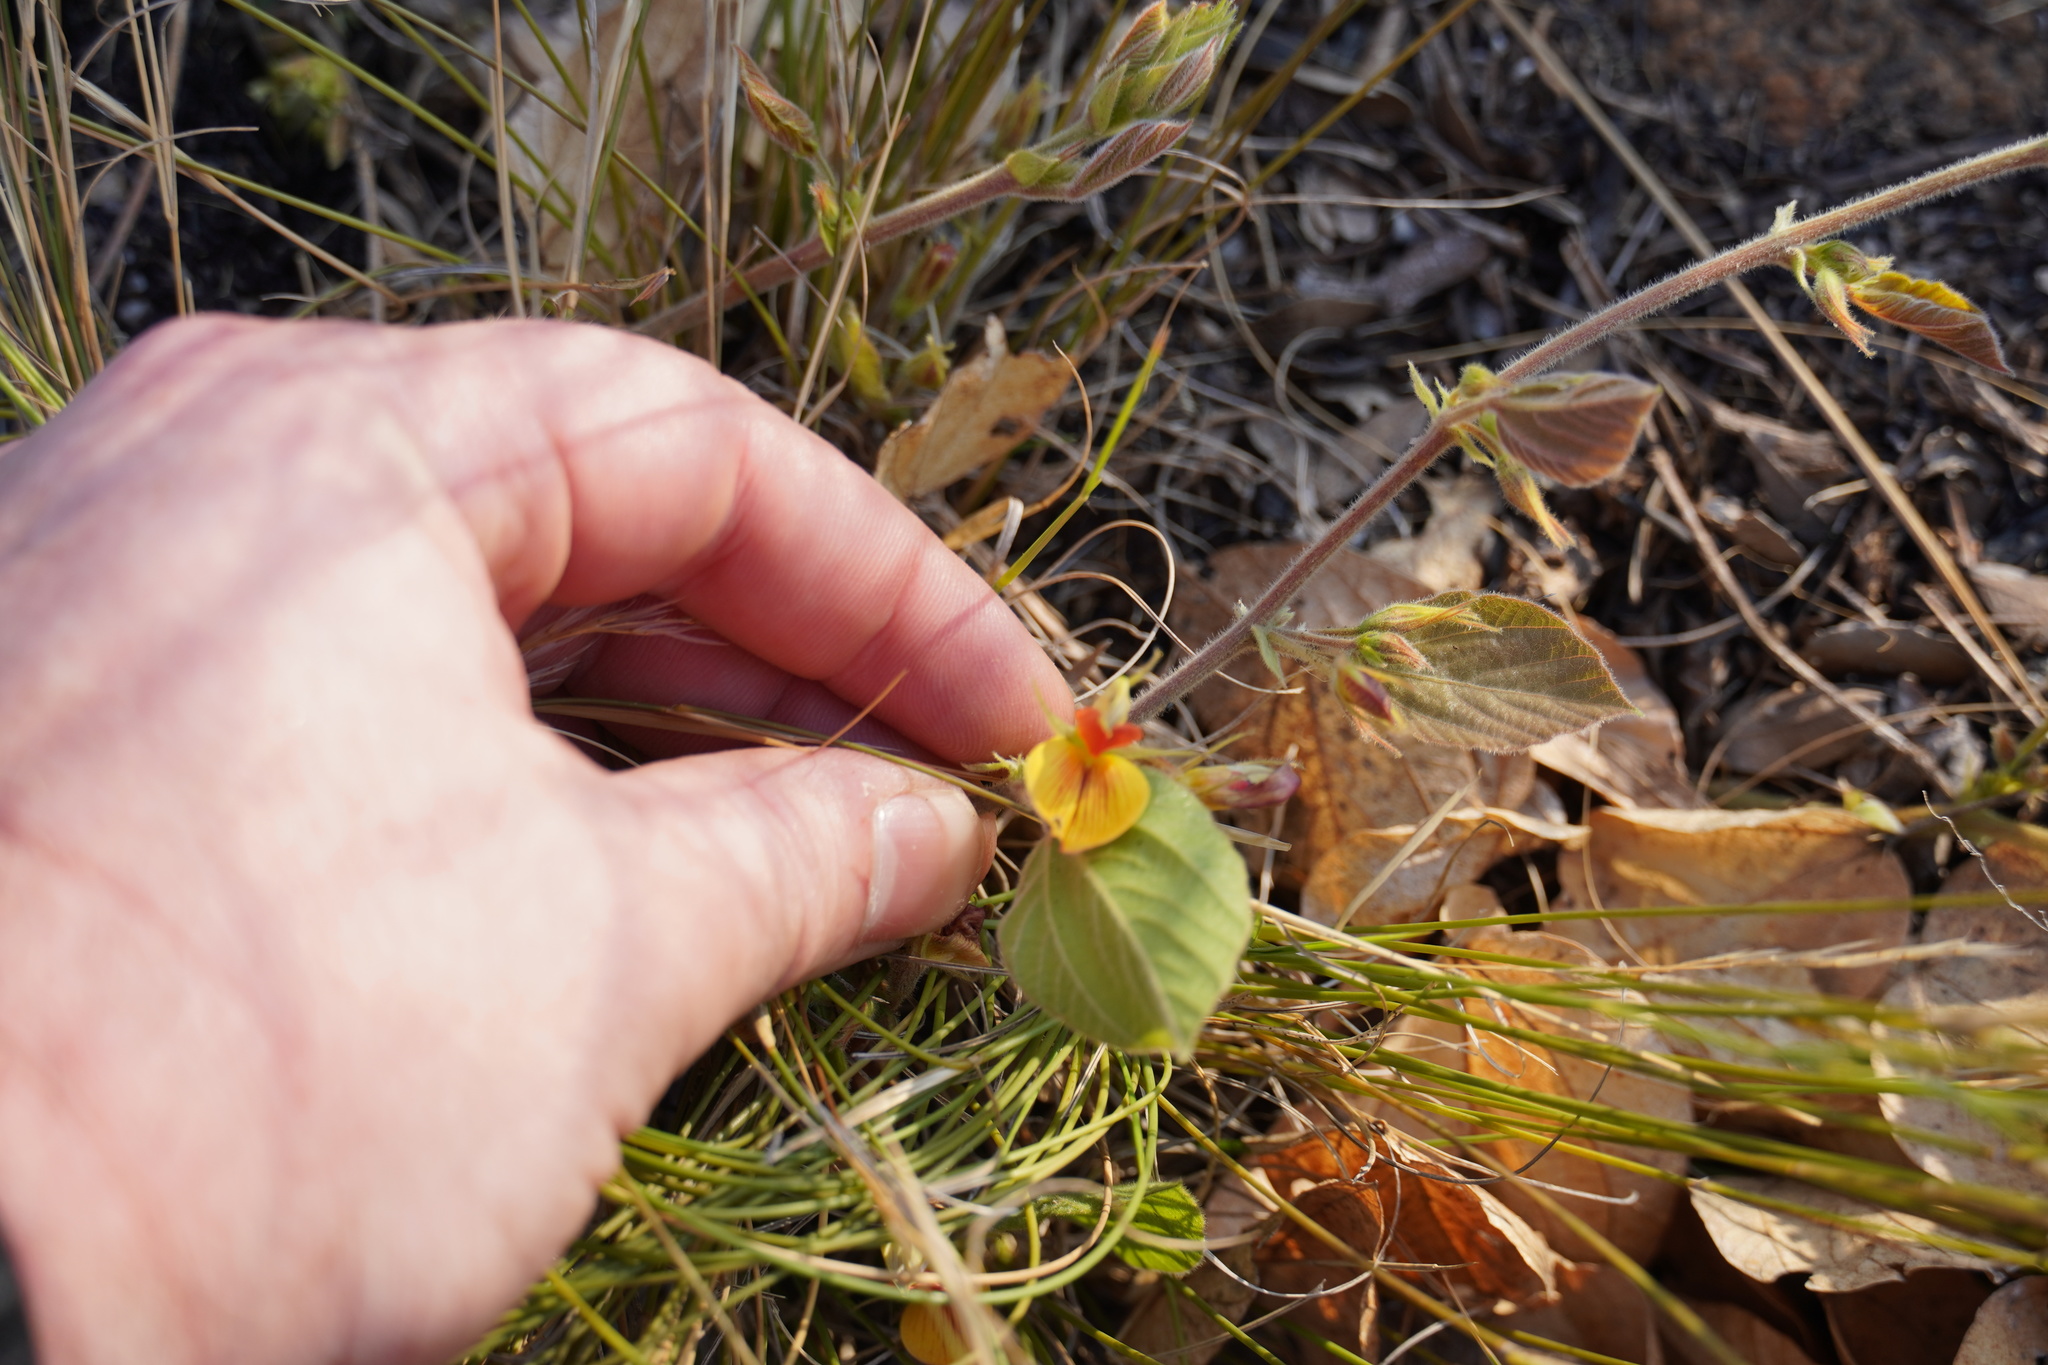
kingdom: Plantae
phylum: Tracheophyta
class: Magnoliopsida
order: Fabales
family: Fabaceae
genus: Rhynchosia
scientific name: Rhynchosia monophylla
